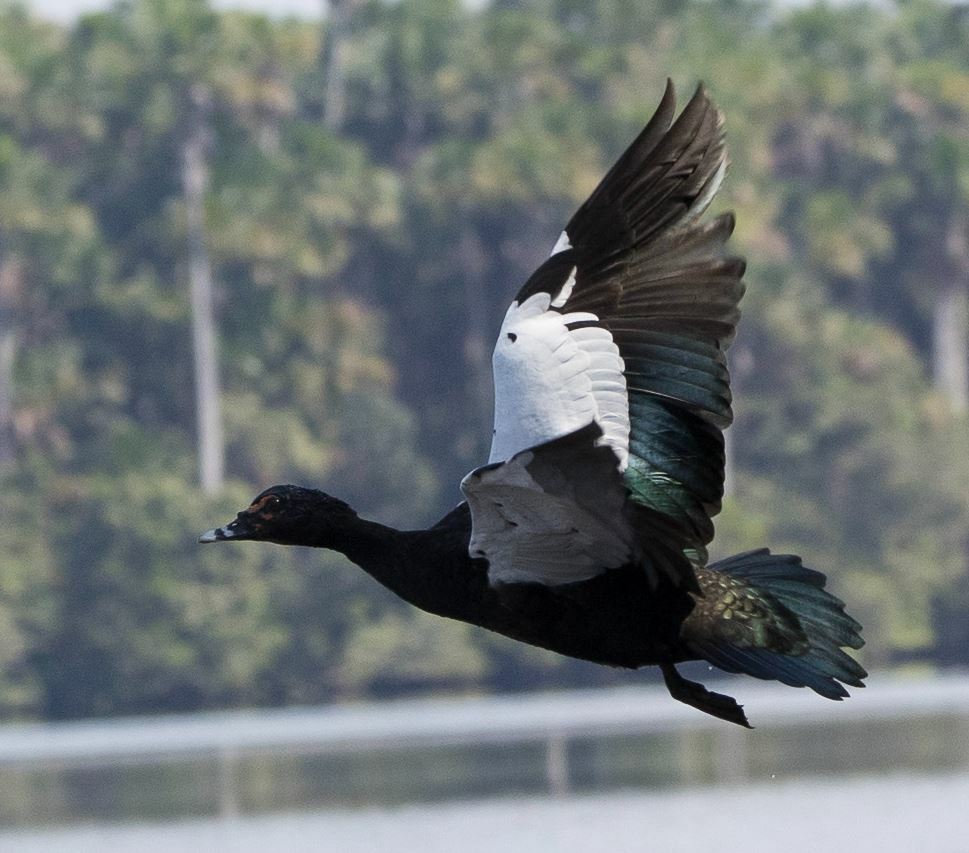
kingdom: Animalia
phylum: Chordata
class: Aves
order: Anseriformes
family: Anatidae
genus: Cairina
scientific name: Cairina moschata
